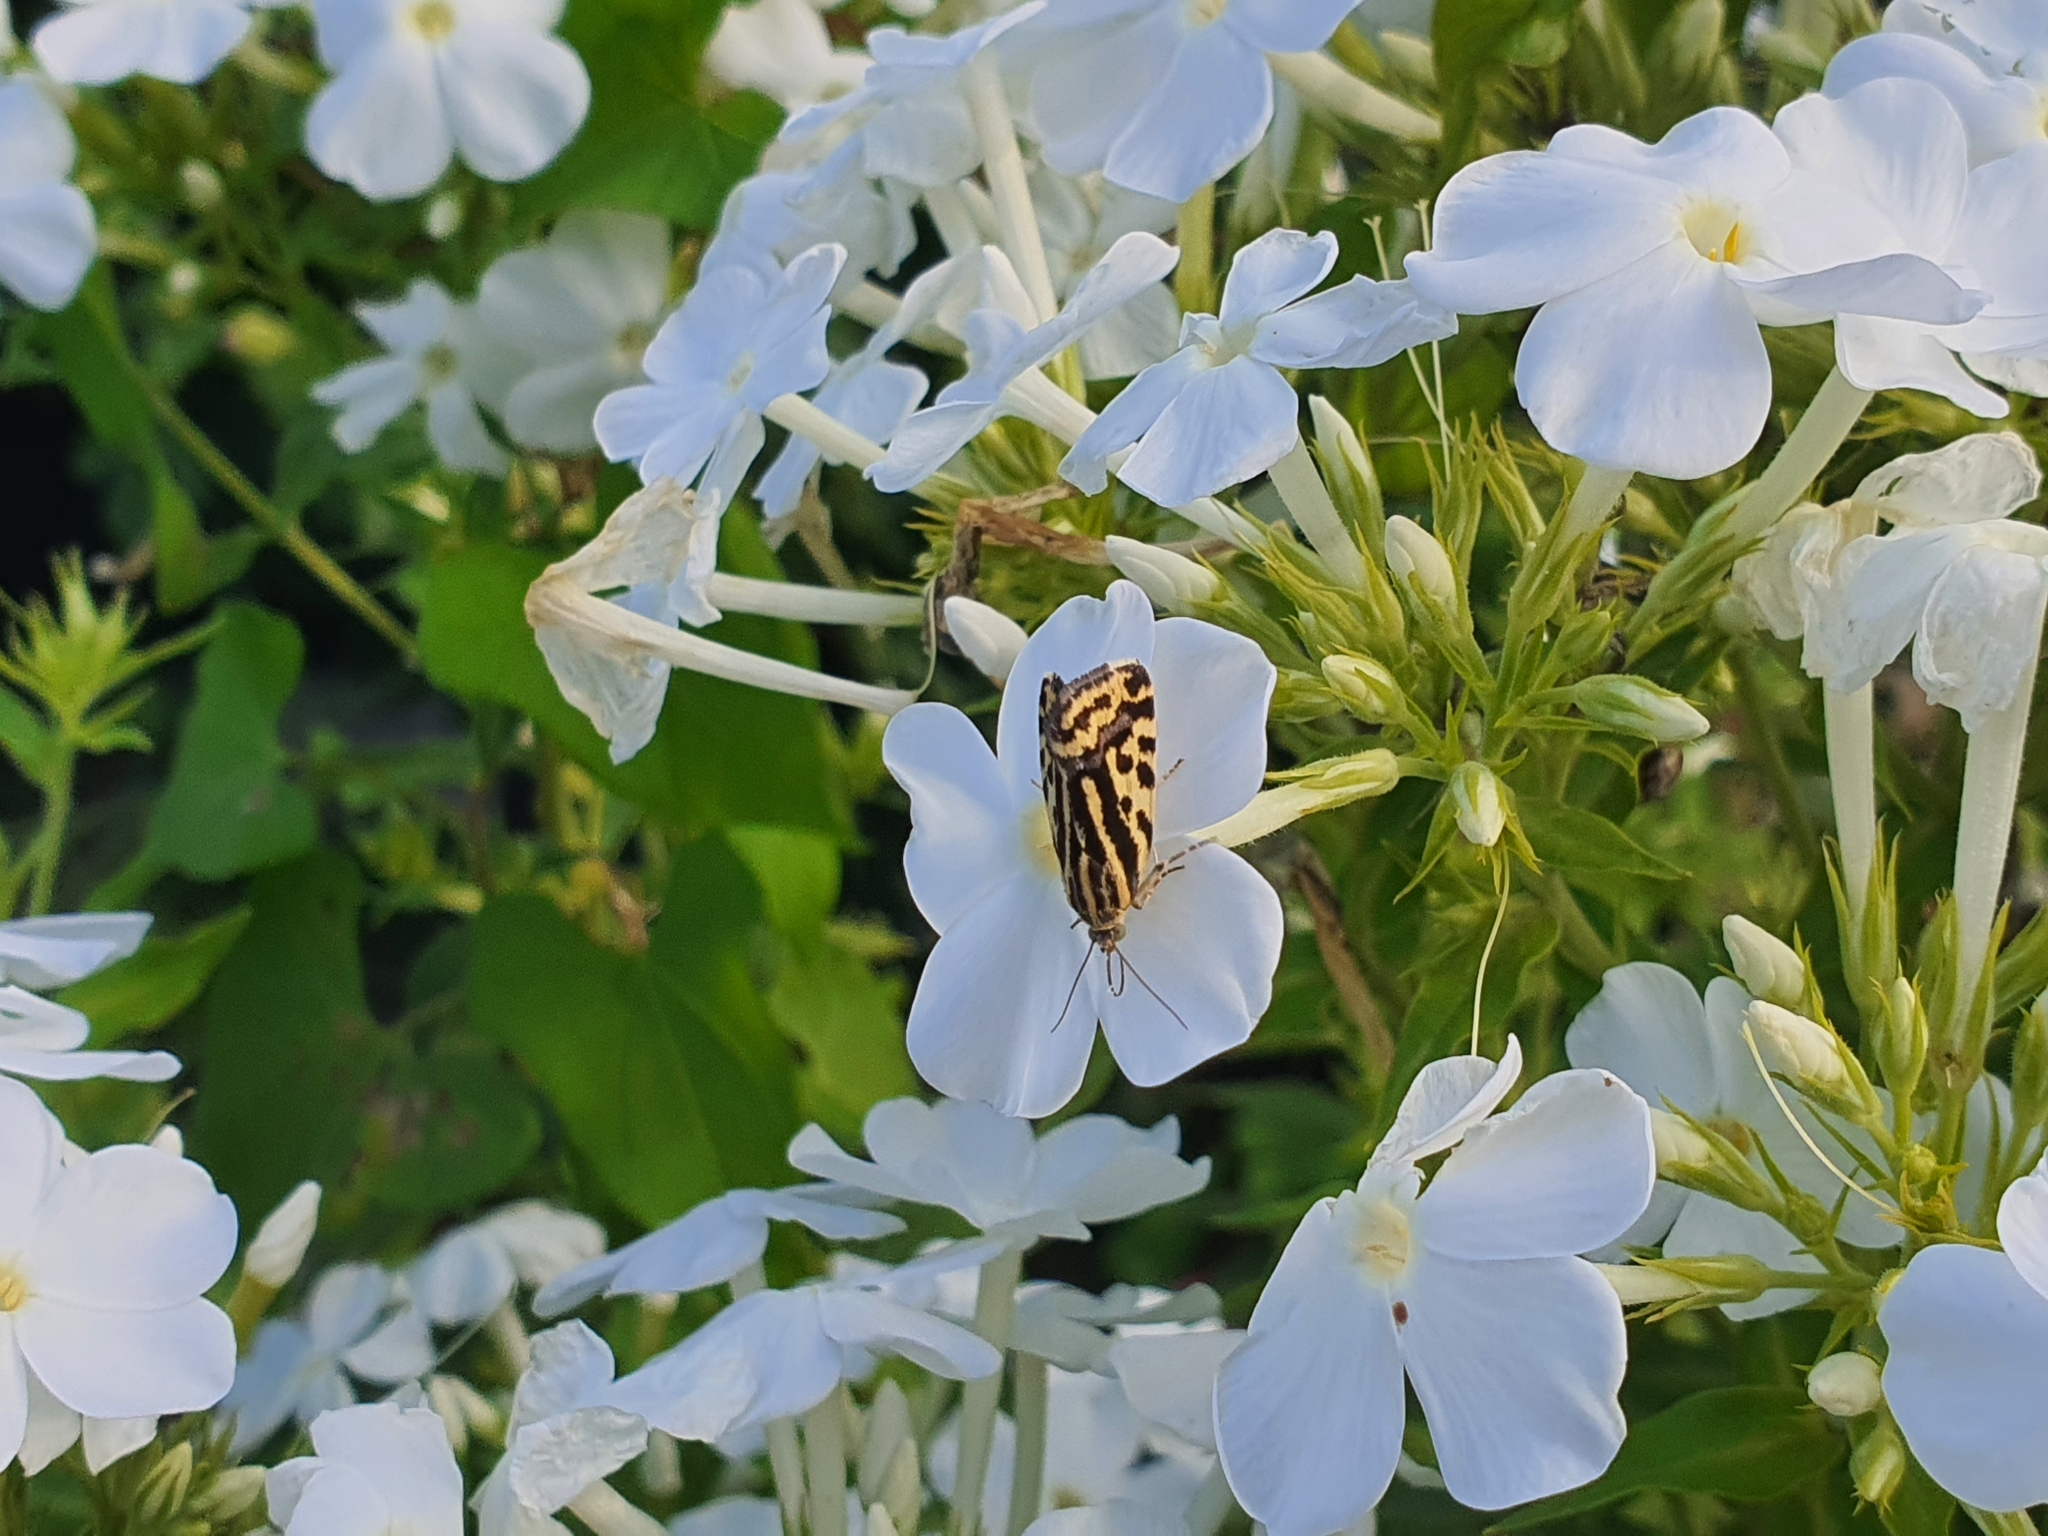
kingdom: Animalia
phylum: Arthropoda
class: Insecta
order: Lepidoptera
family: Noctuidae
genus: Acontia
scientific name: Acontia trabealis
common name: Spotted sulphur
